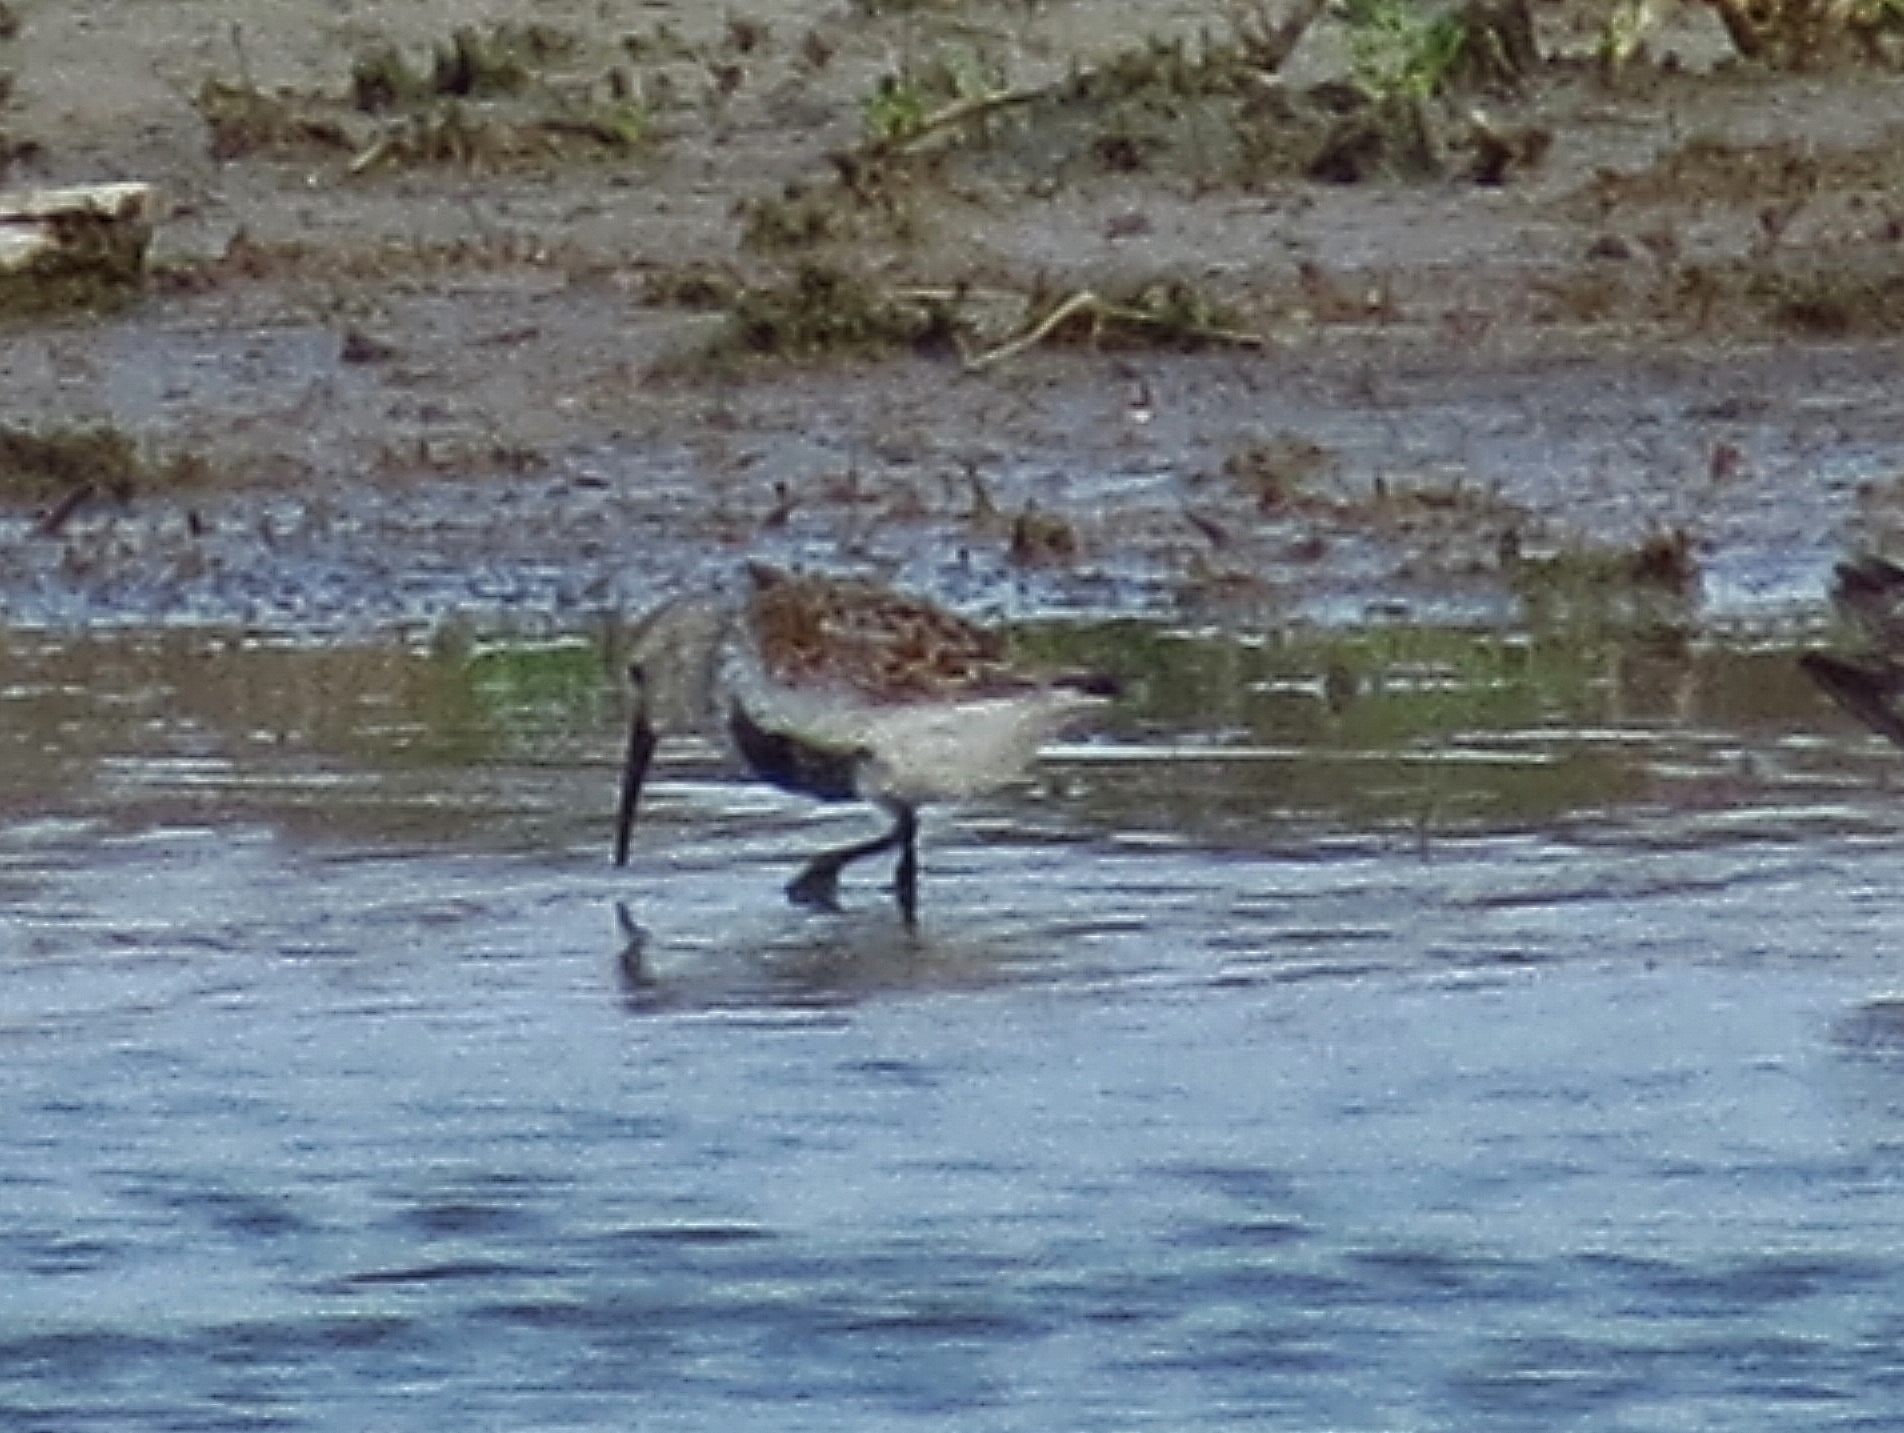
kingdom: Animalia
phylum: Chordata
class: Aves
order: Charadriiformes
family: Scolopacidae
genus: Calidris
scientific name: Calidris alpina
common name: Dunlin
